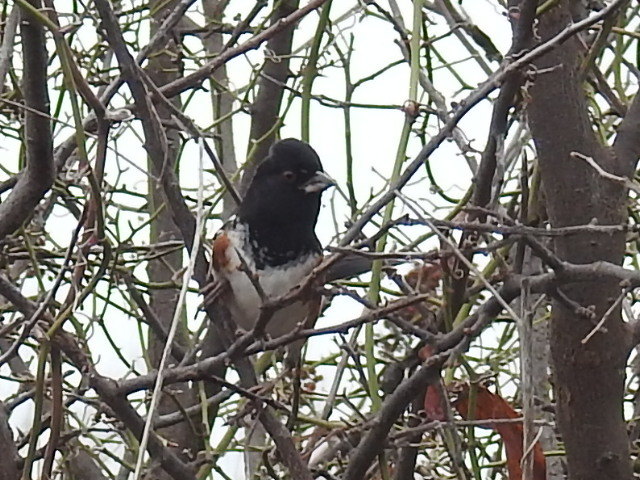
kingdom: Animalia
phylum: Chordata
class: Aves
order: Passeriformes
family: Passerellidae
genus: Pipilo
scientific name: Pipilo maculatus
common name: Spotted towhee
